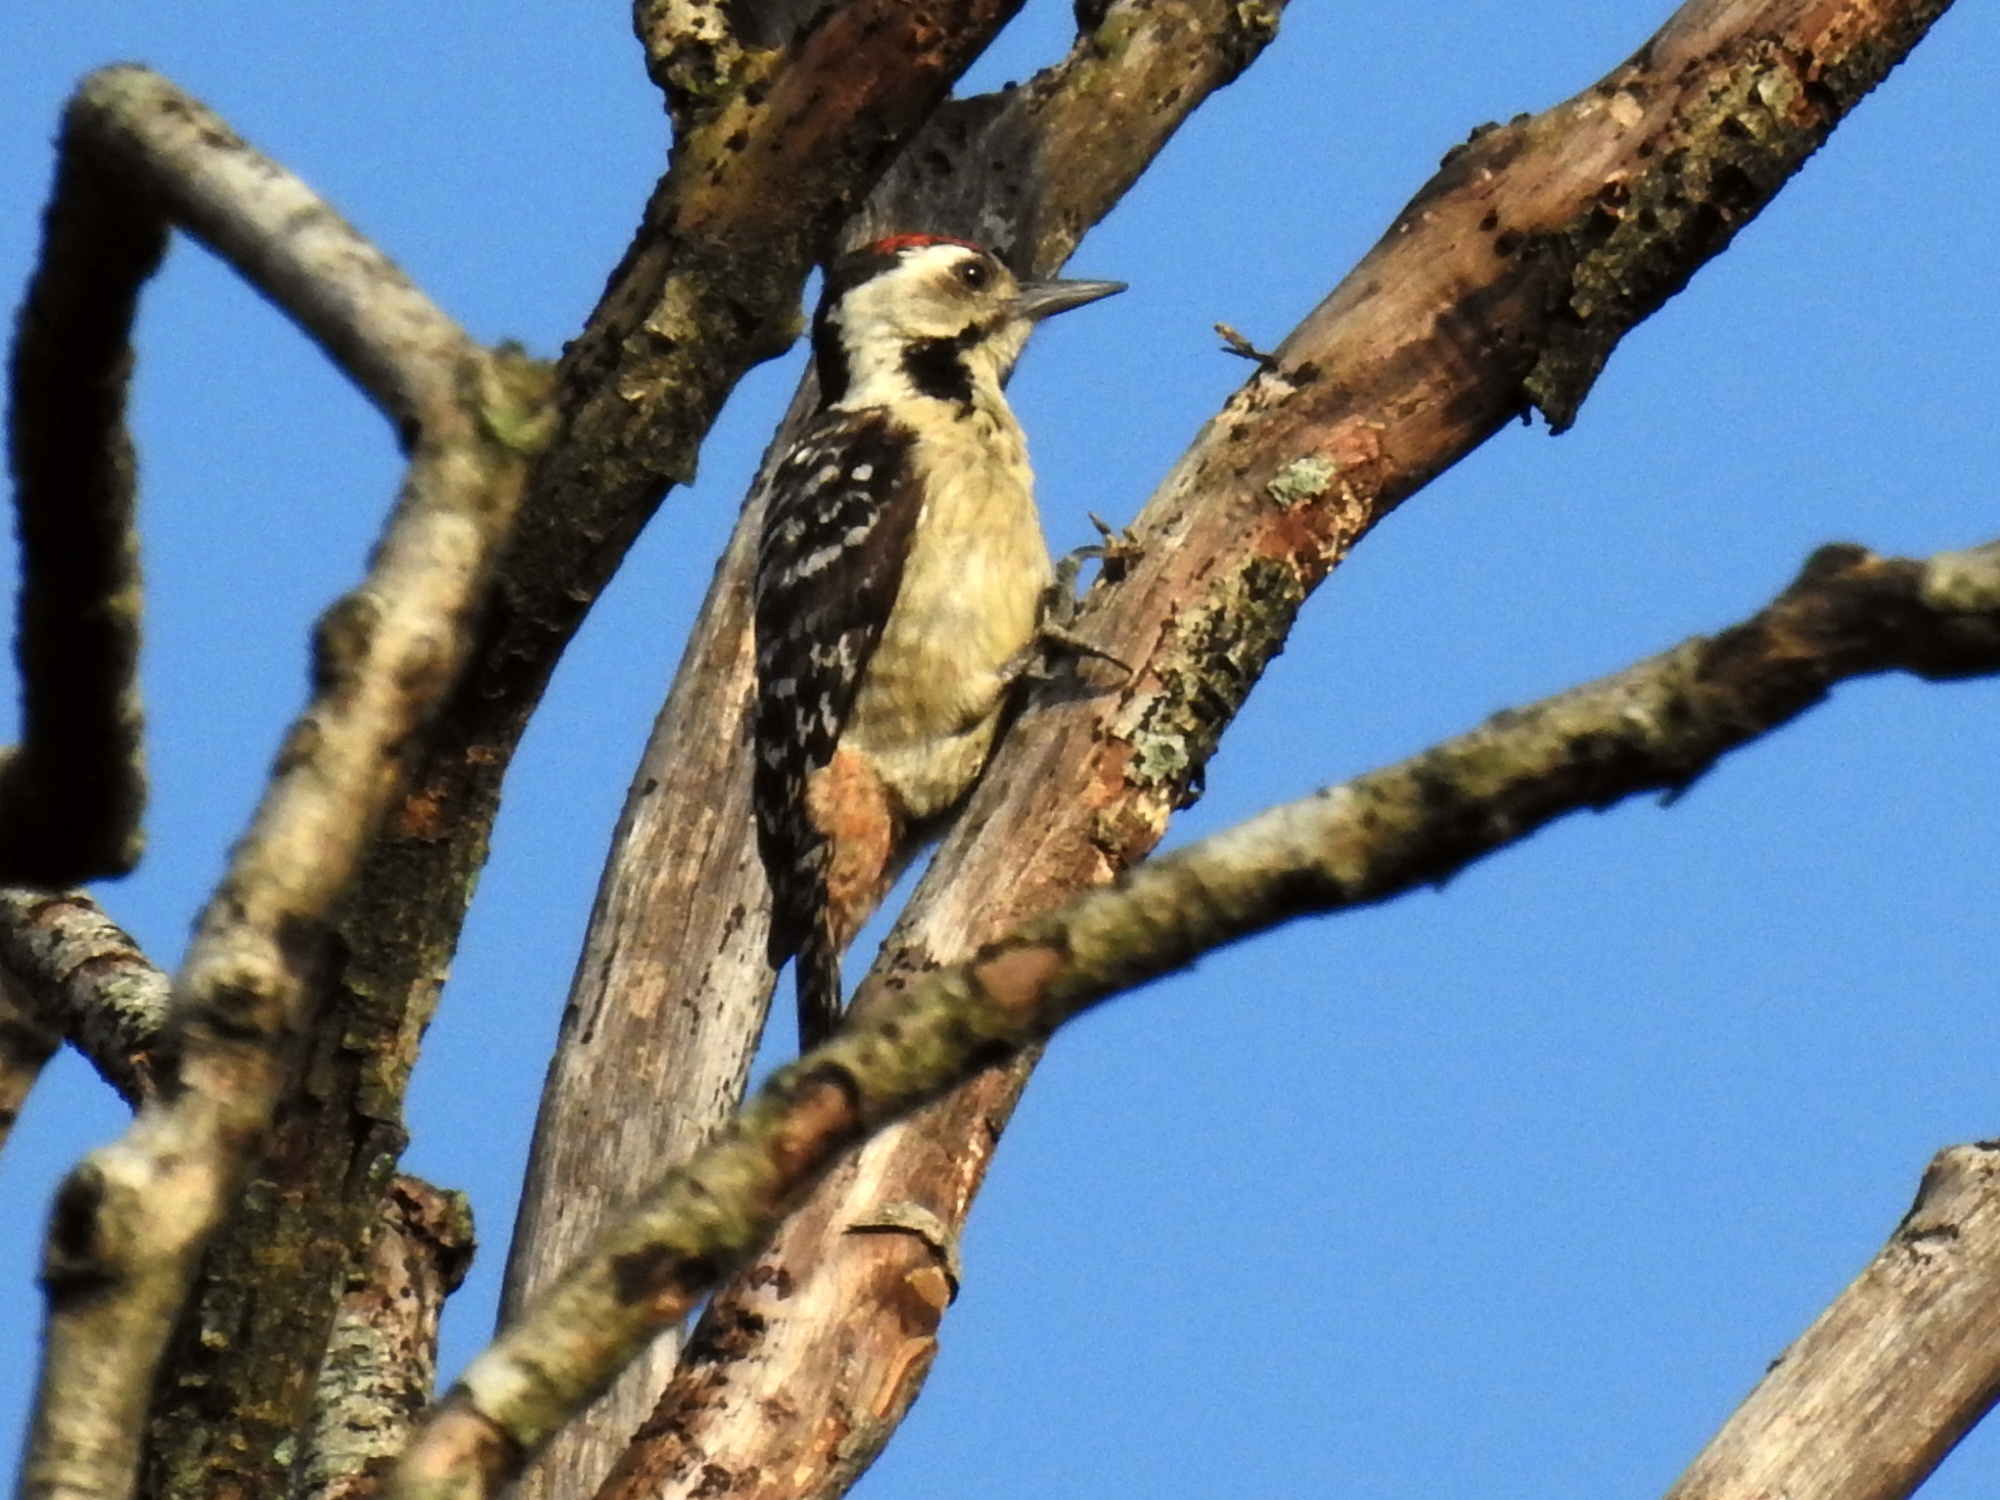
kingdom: Animalia
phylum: Chordata
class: Aves
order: Piciformes
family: Picidae
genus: Dendrocopos
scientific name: Dendrocopos analis
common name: Freckle-breasted woodpecker
